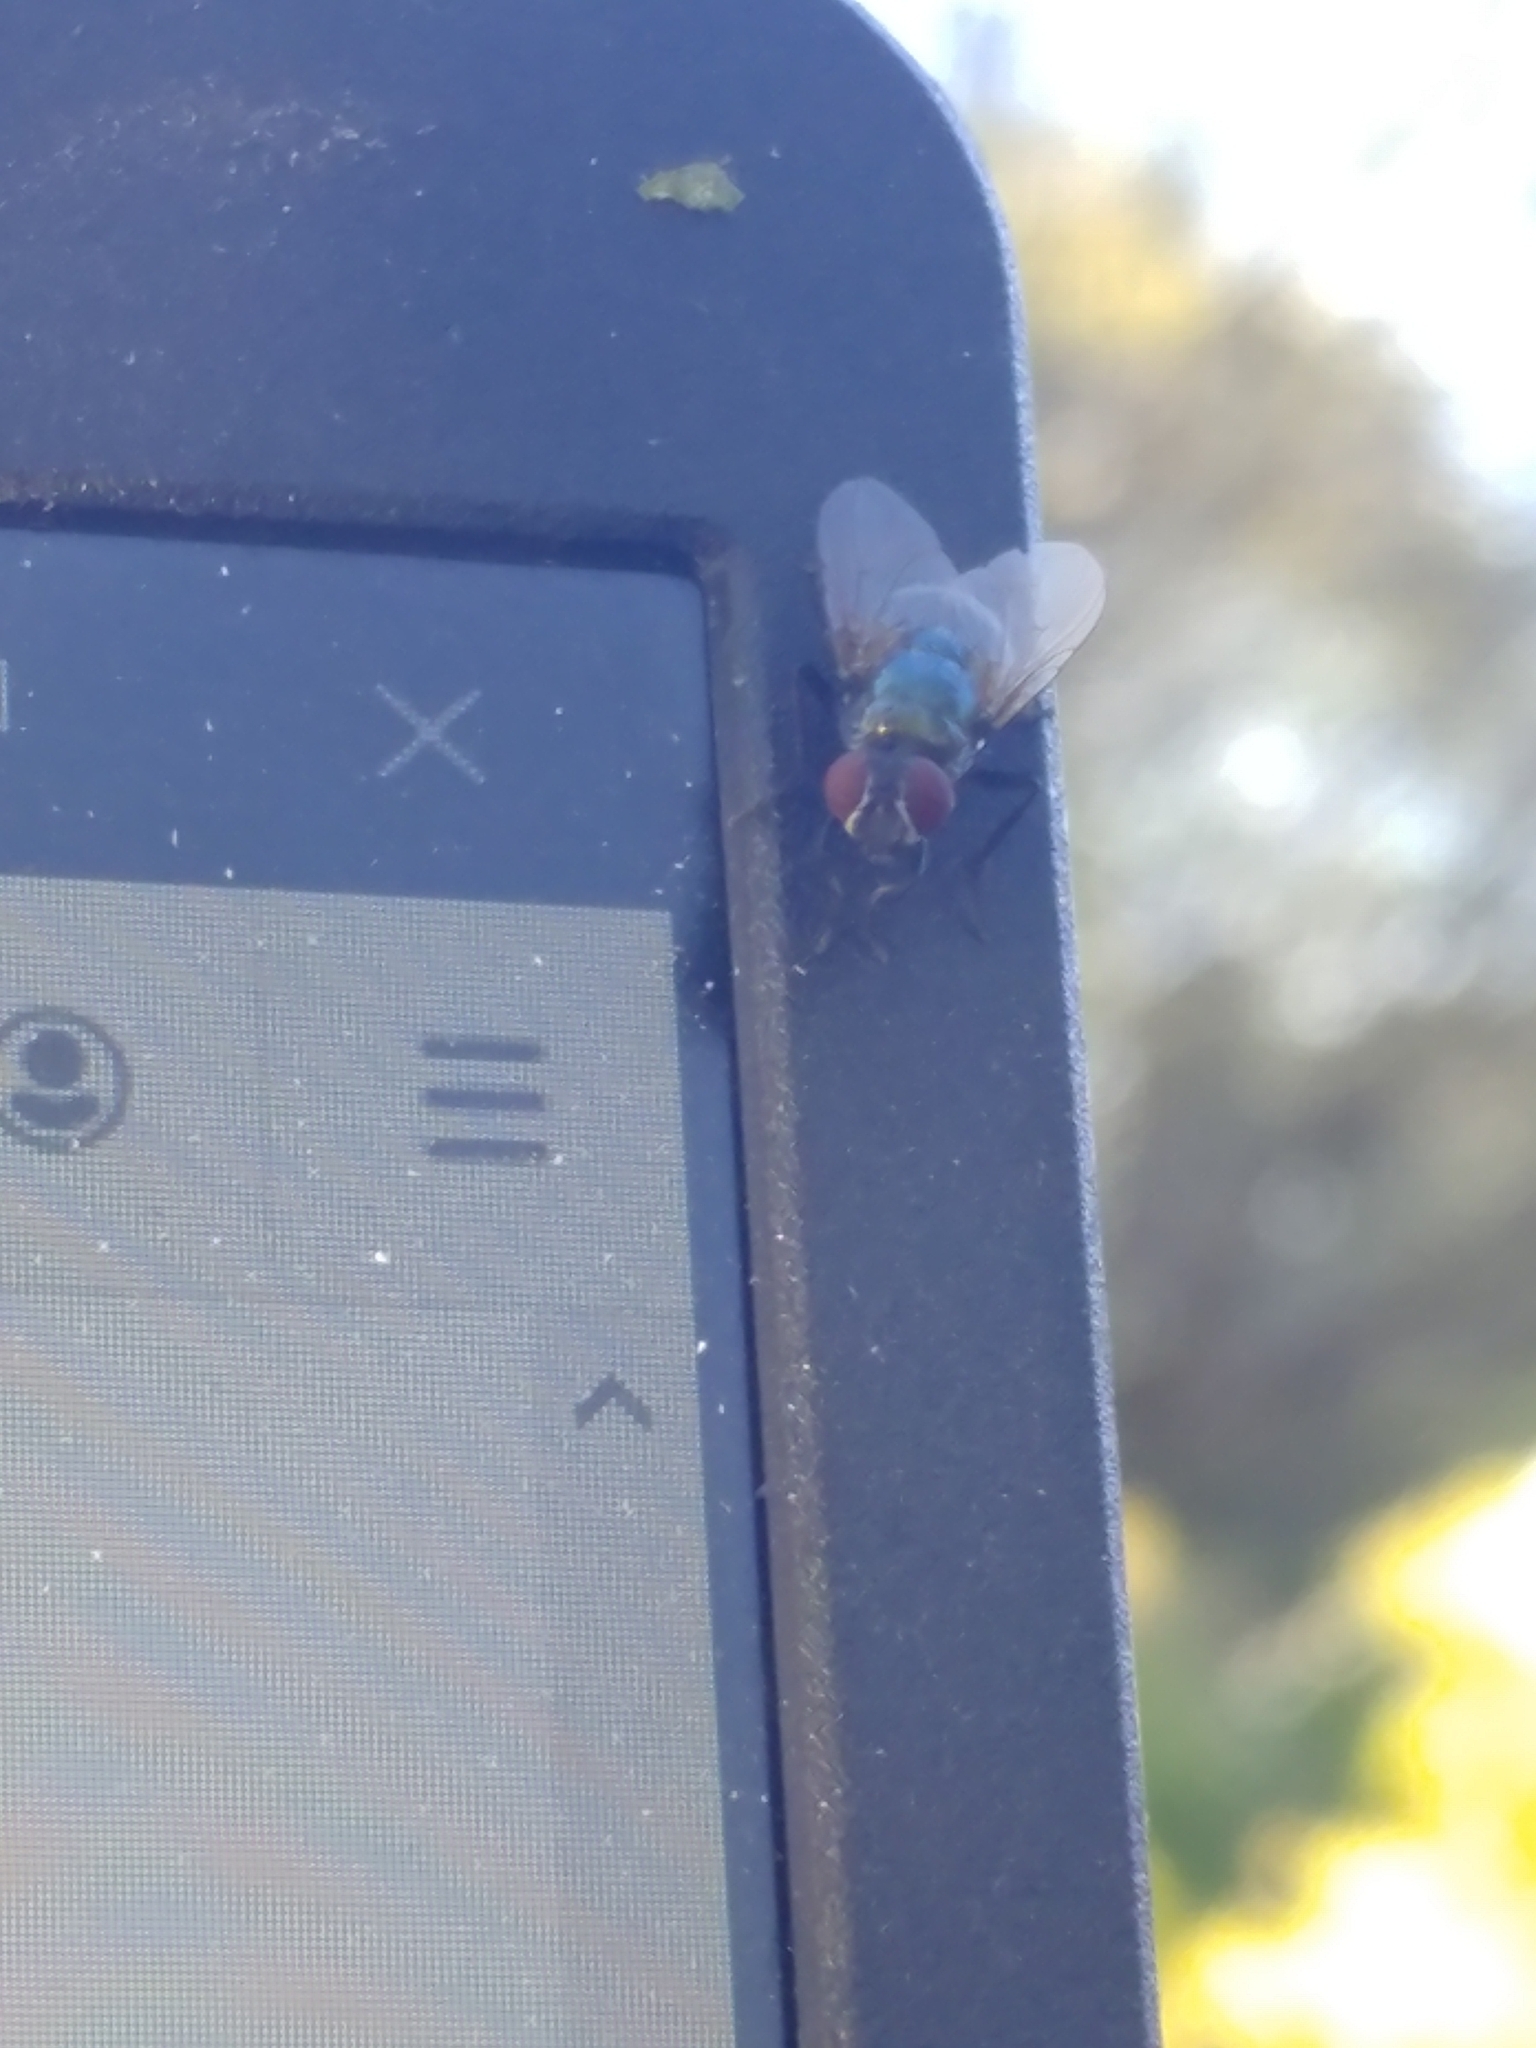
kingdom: Animalia
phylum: Arthropoda
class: Insecta
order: Diptera
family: Calliphoridae
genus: Lucilia
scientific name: Lucilia sericata
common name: Blow fly
